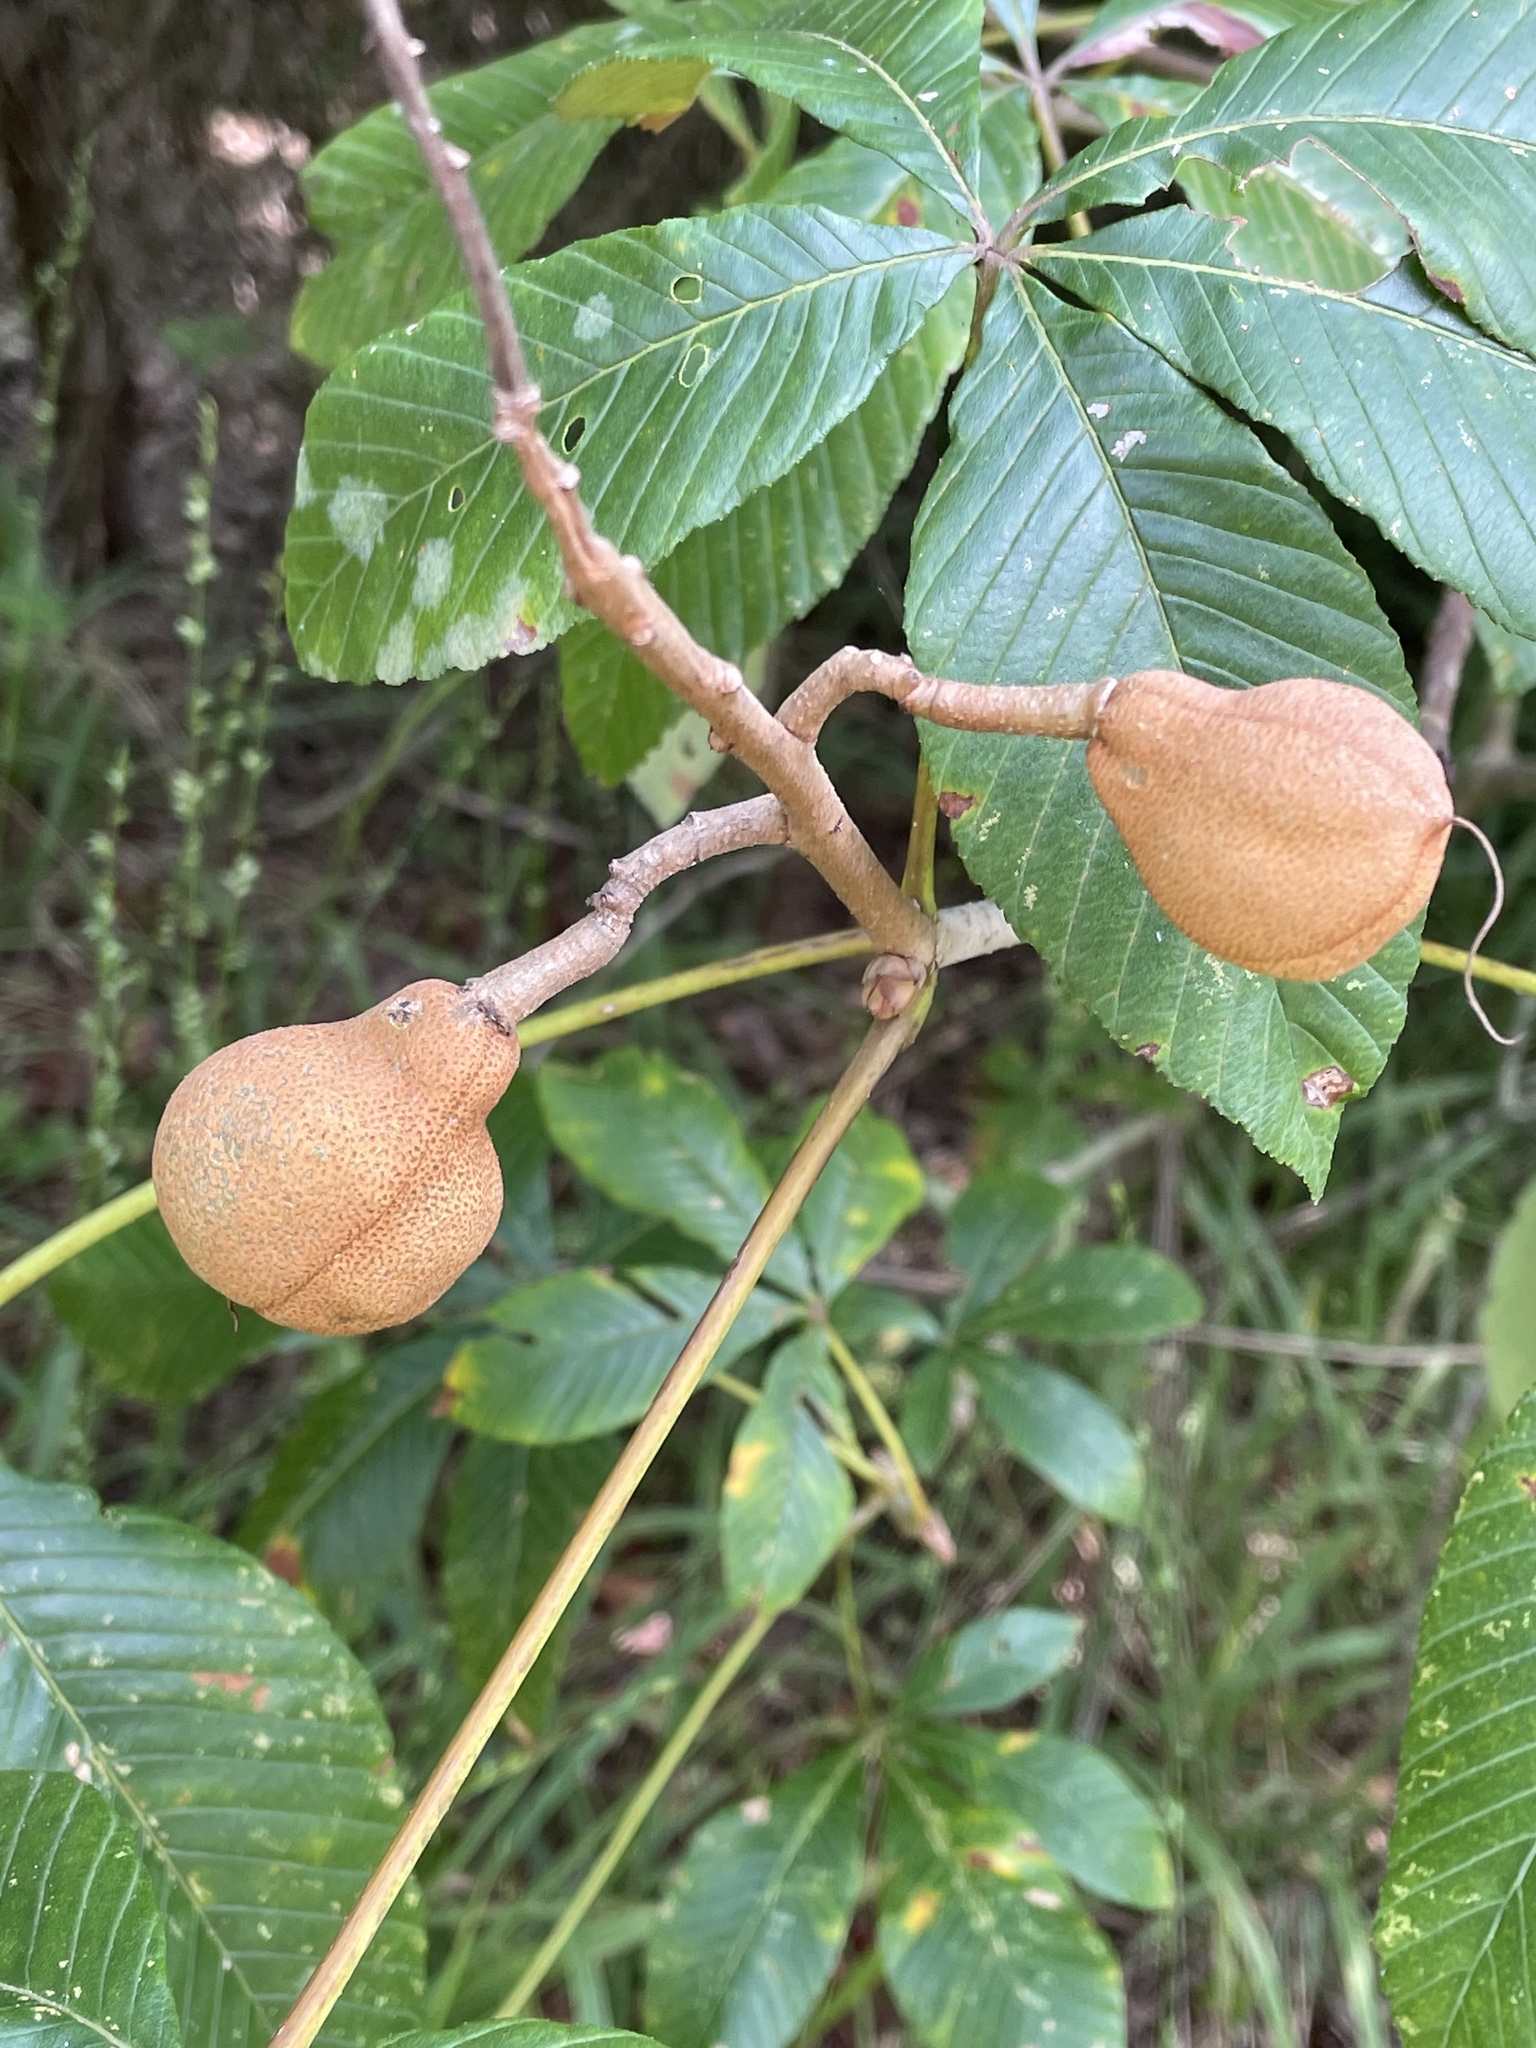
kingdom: Plantae
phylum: Tracheophyta
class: Magnoliopsida
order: Sapindales
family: Sapindaceae
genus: Aesculus
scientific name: Aesculus pavia
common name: Red buckeye
